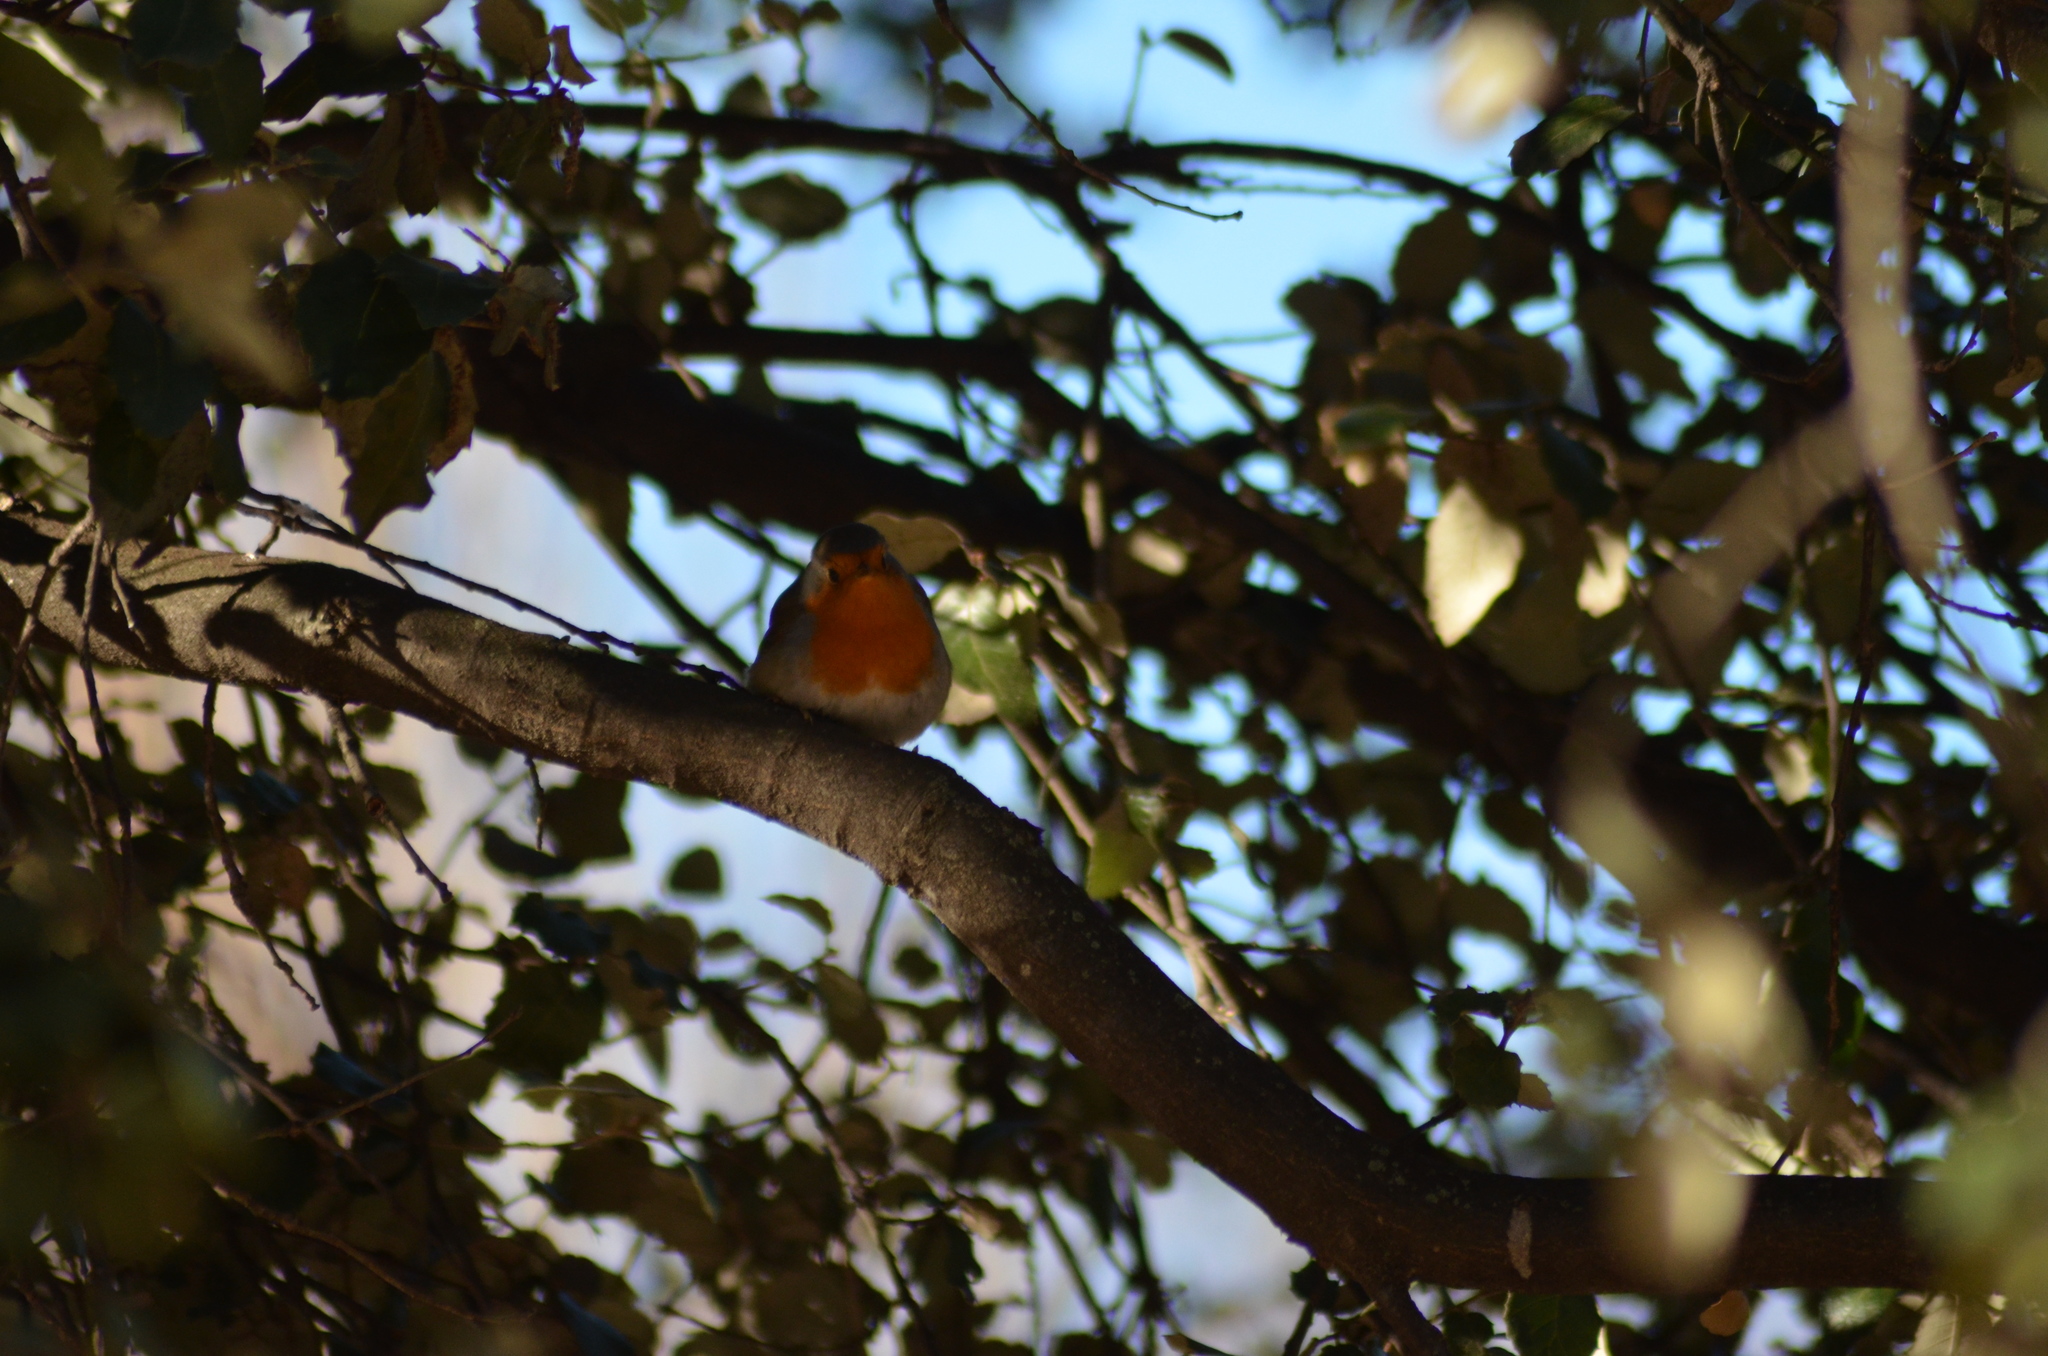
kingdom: Animalia
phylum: Chordata
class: Aves
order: Passeriformes
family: Muscicapidae
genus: Erithacus
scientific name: Erithacus rubecula
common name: European robin
